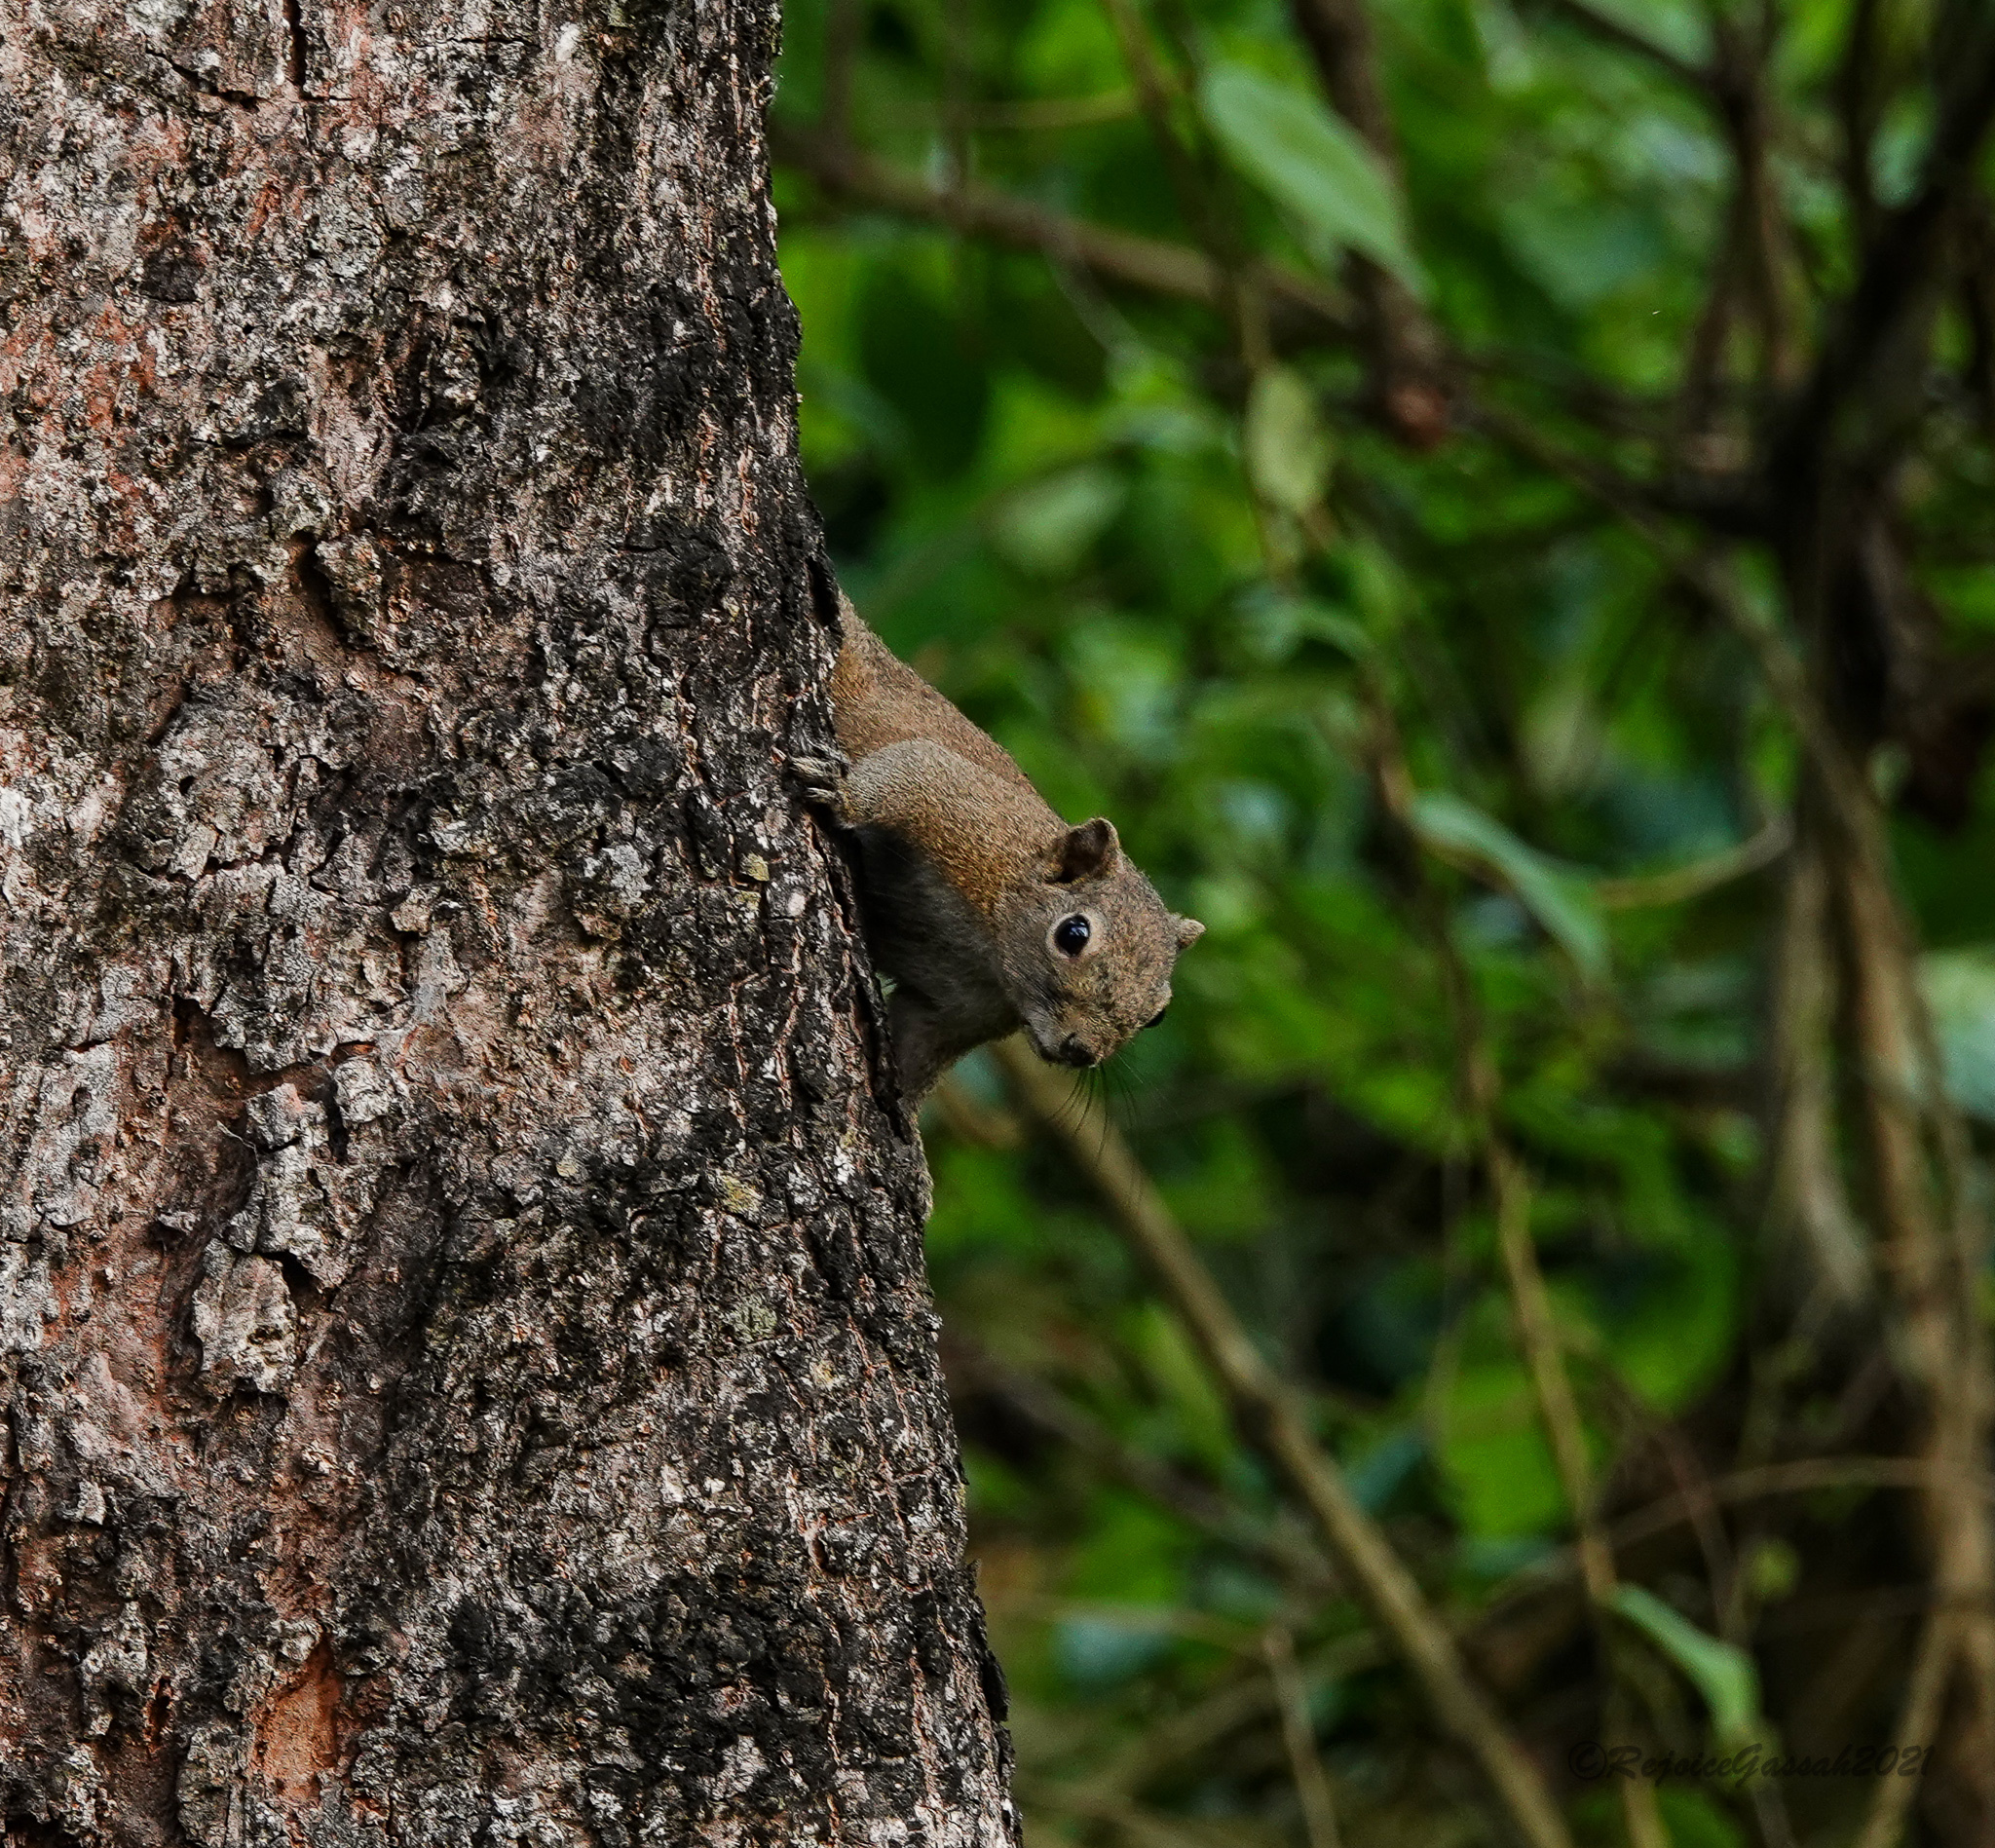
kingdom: Animalia
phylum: Chordata
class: Mammalia
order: Rodentia
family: Sciuridae
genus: Callosciurus
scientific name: Callosciurus pygerythrus
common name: Irrawaddy squirrel
